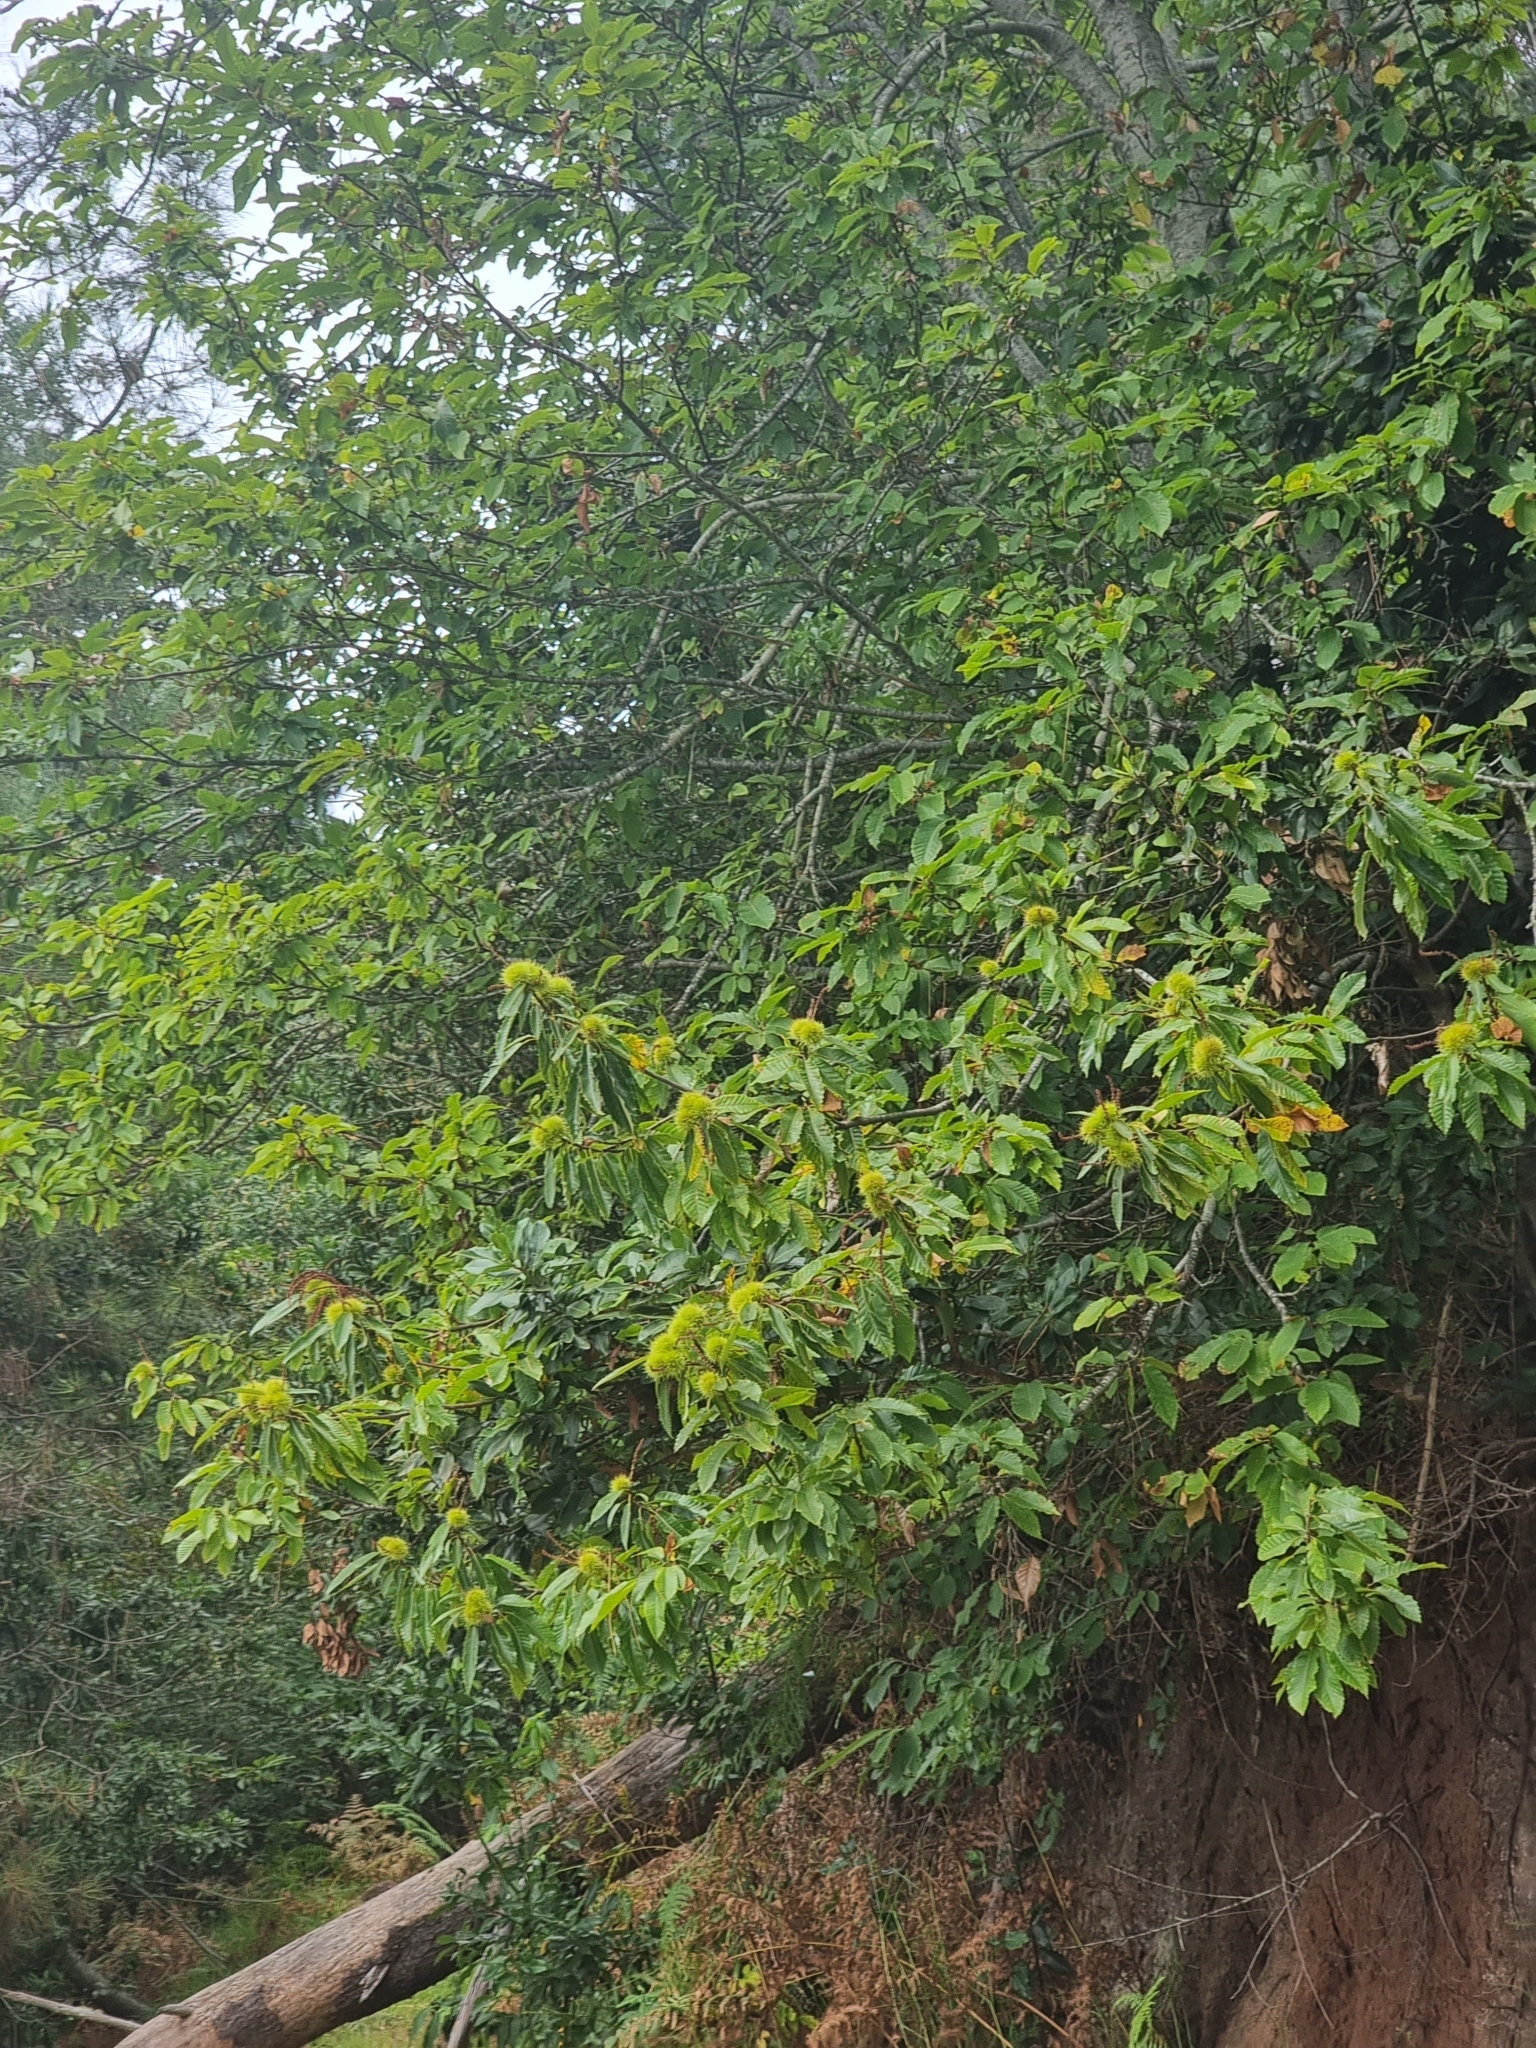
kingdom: Plantae
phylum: Tracheophyta
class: Magnoliopsida
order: Fagales
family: Fagaceae
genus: Castanea
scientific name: Castanea sativa
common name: Sweet chestnut
